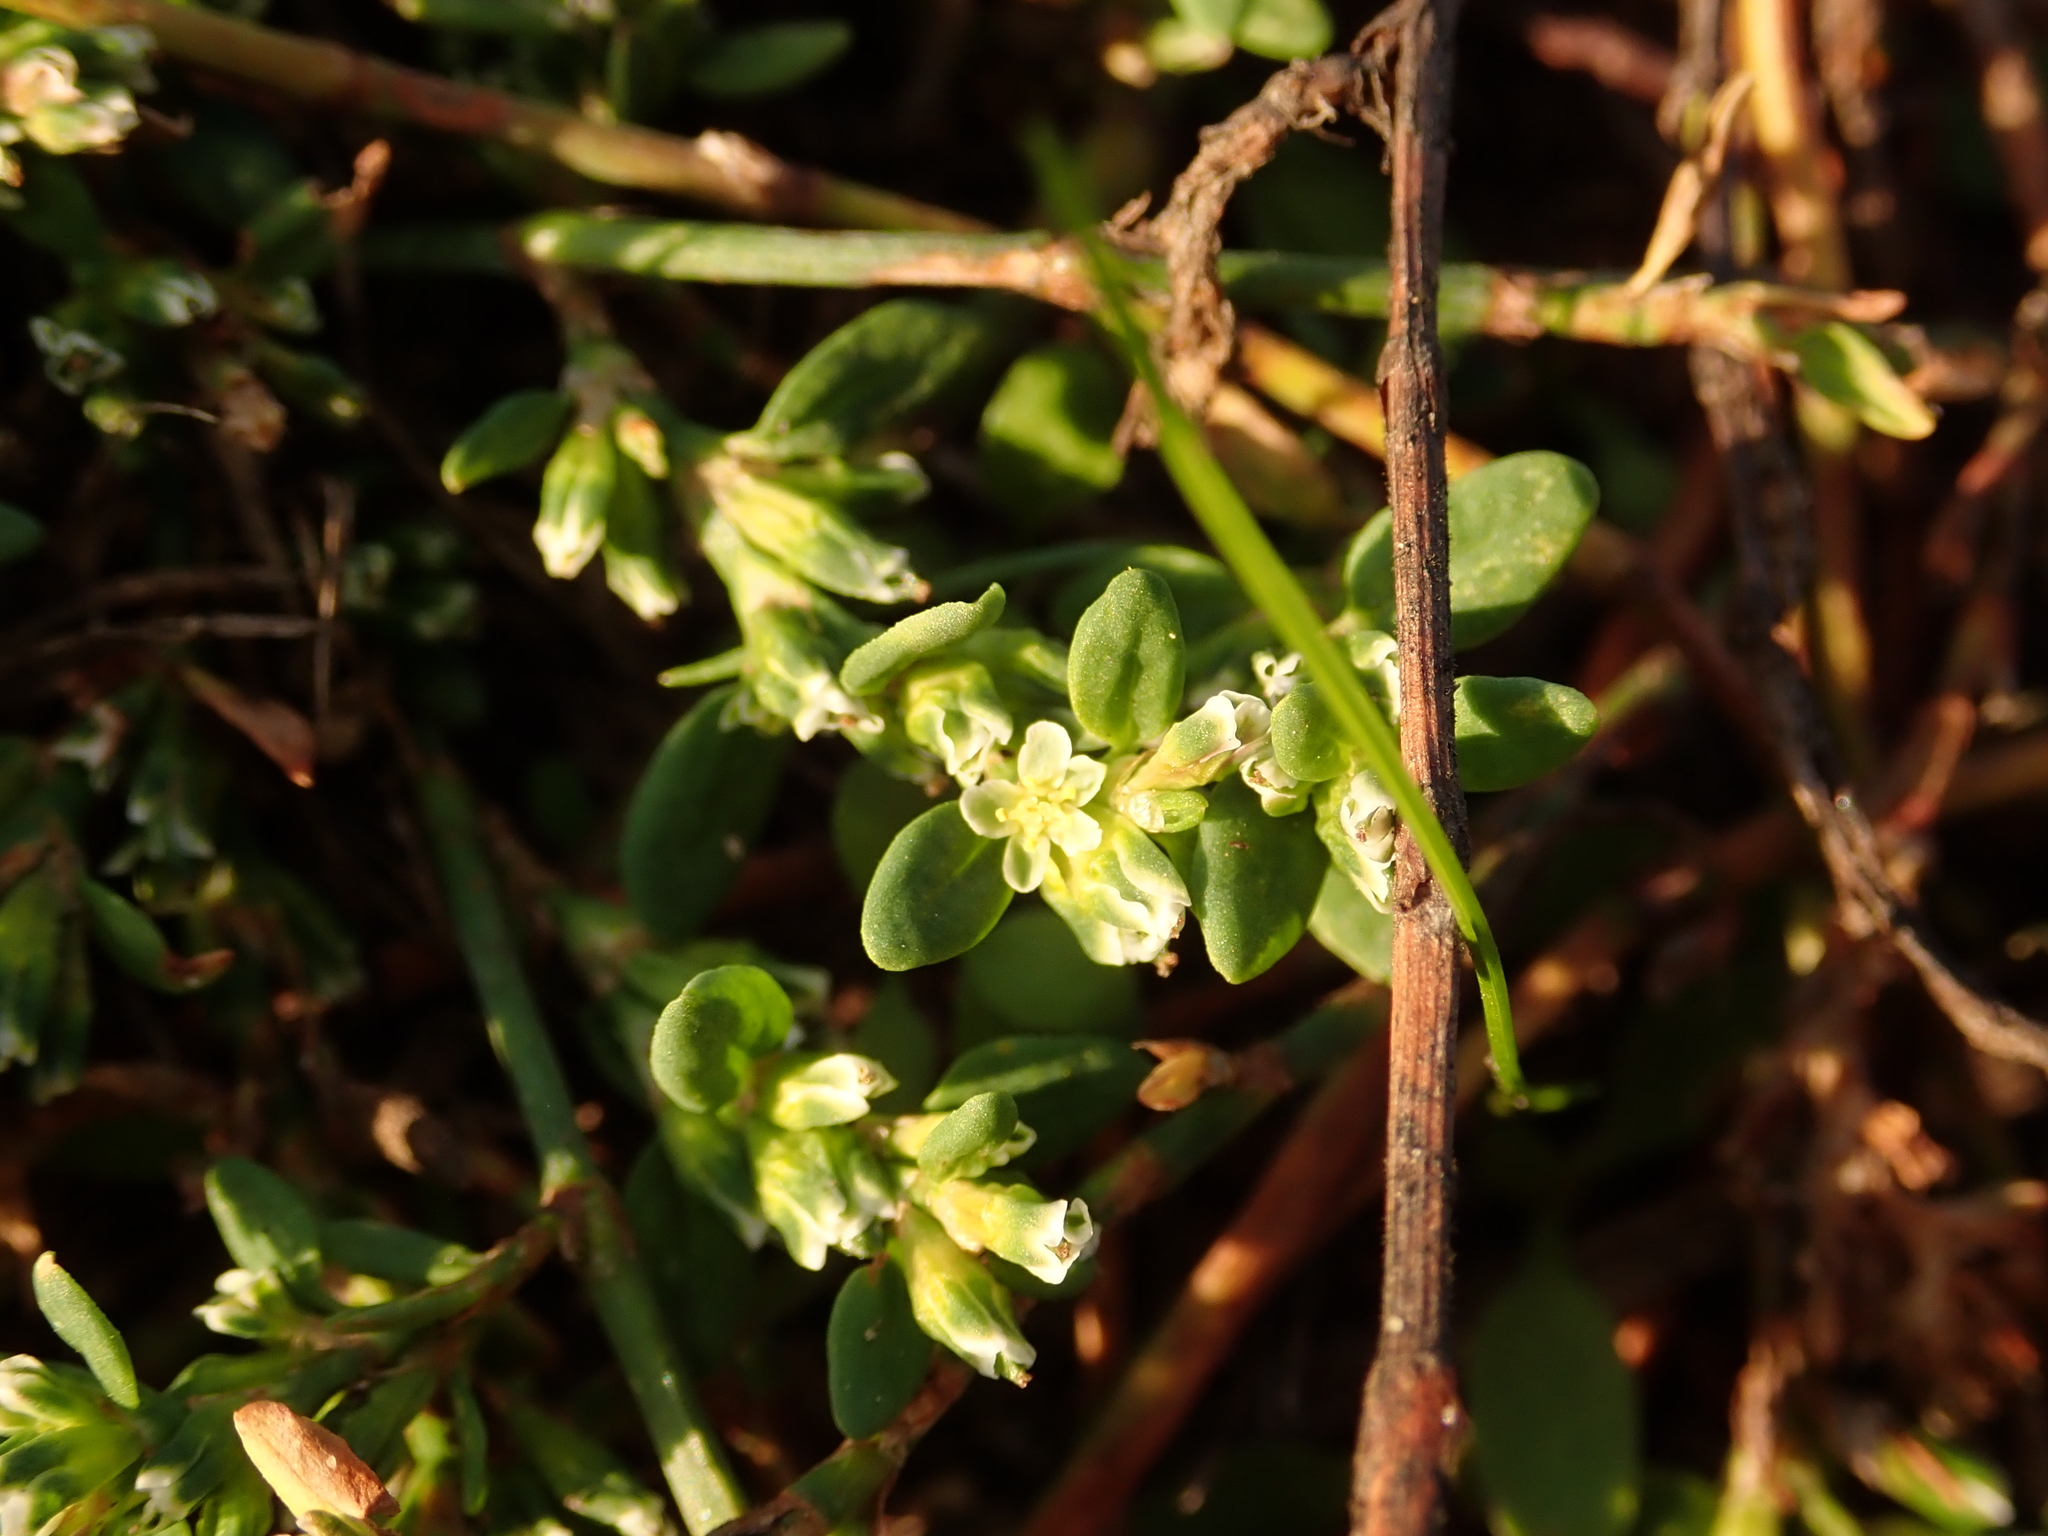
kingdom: Plantae
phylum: Tracheophyta
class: Magnoliopsida
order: Caryophyllales
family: Polygonaceae
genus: Polygonum
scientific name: Polygonum aviculare
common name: Prostrate knotweed
